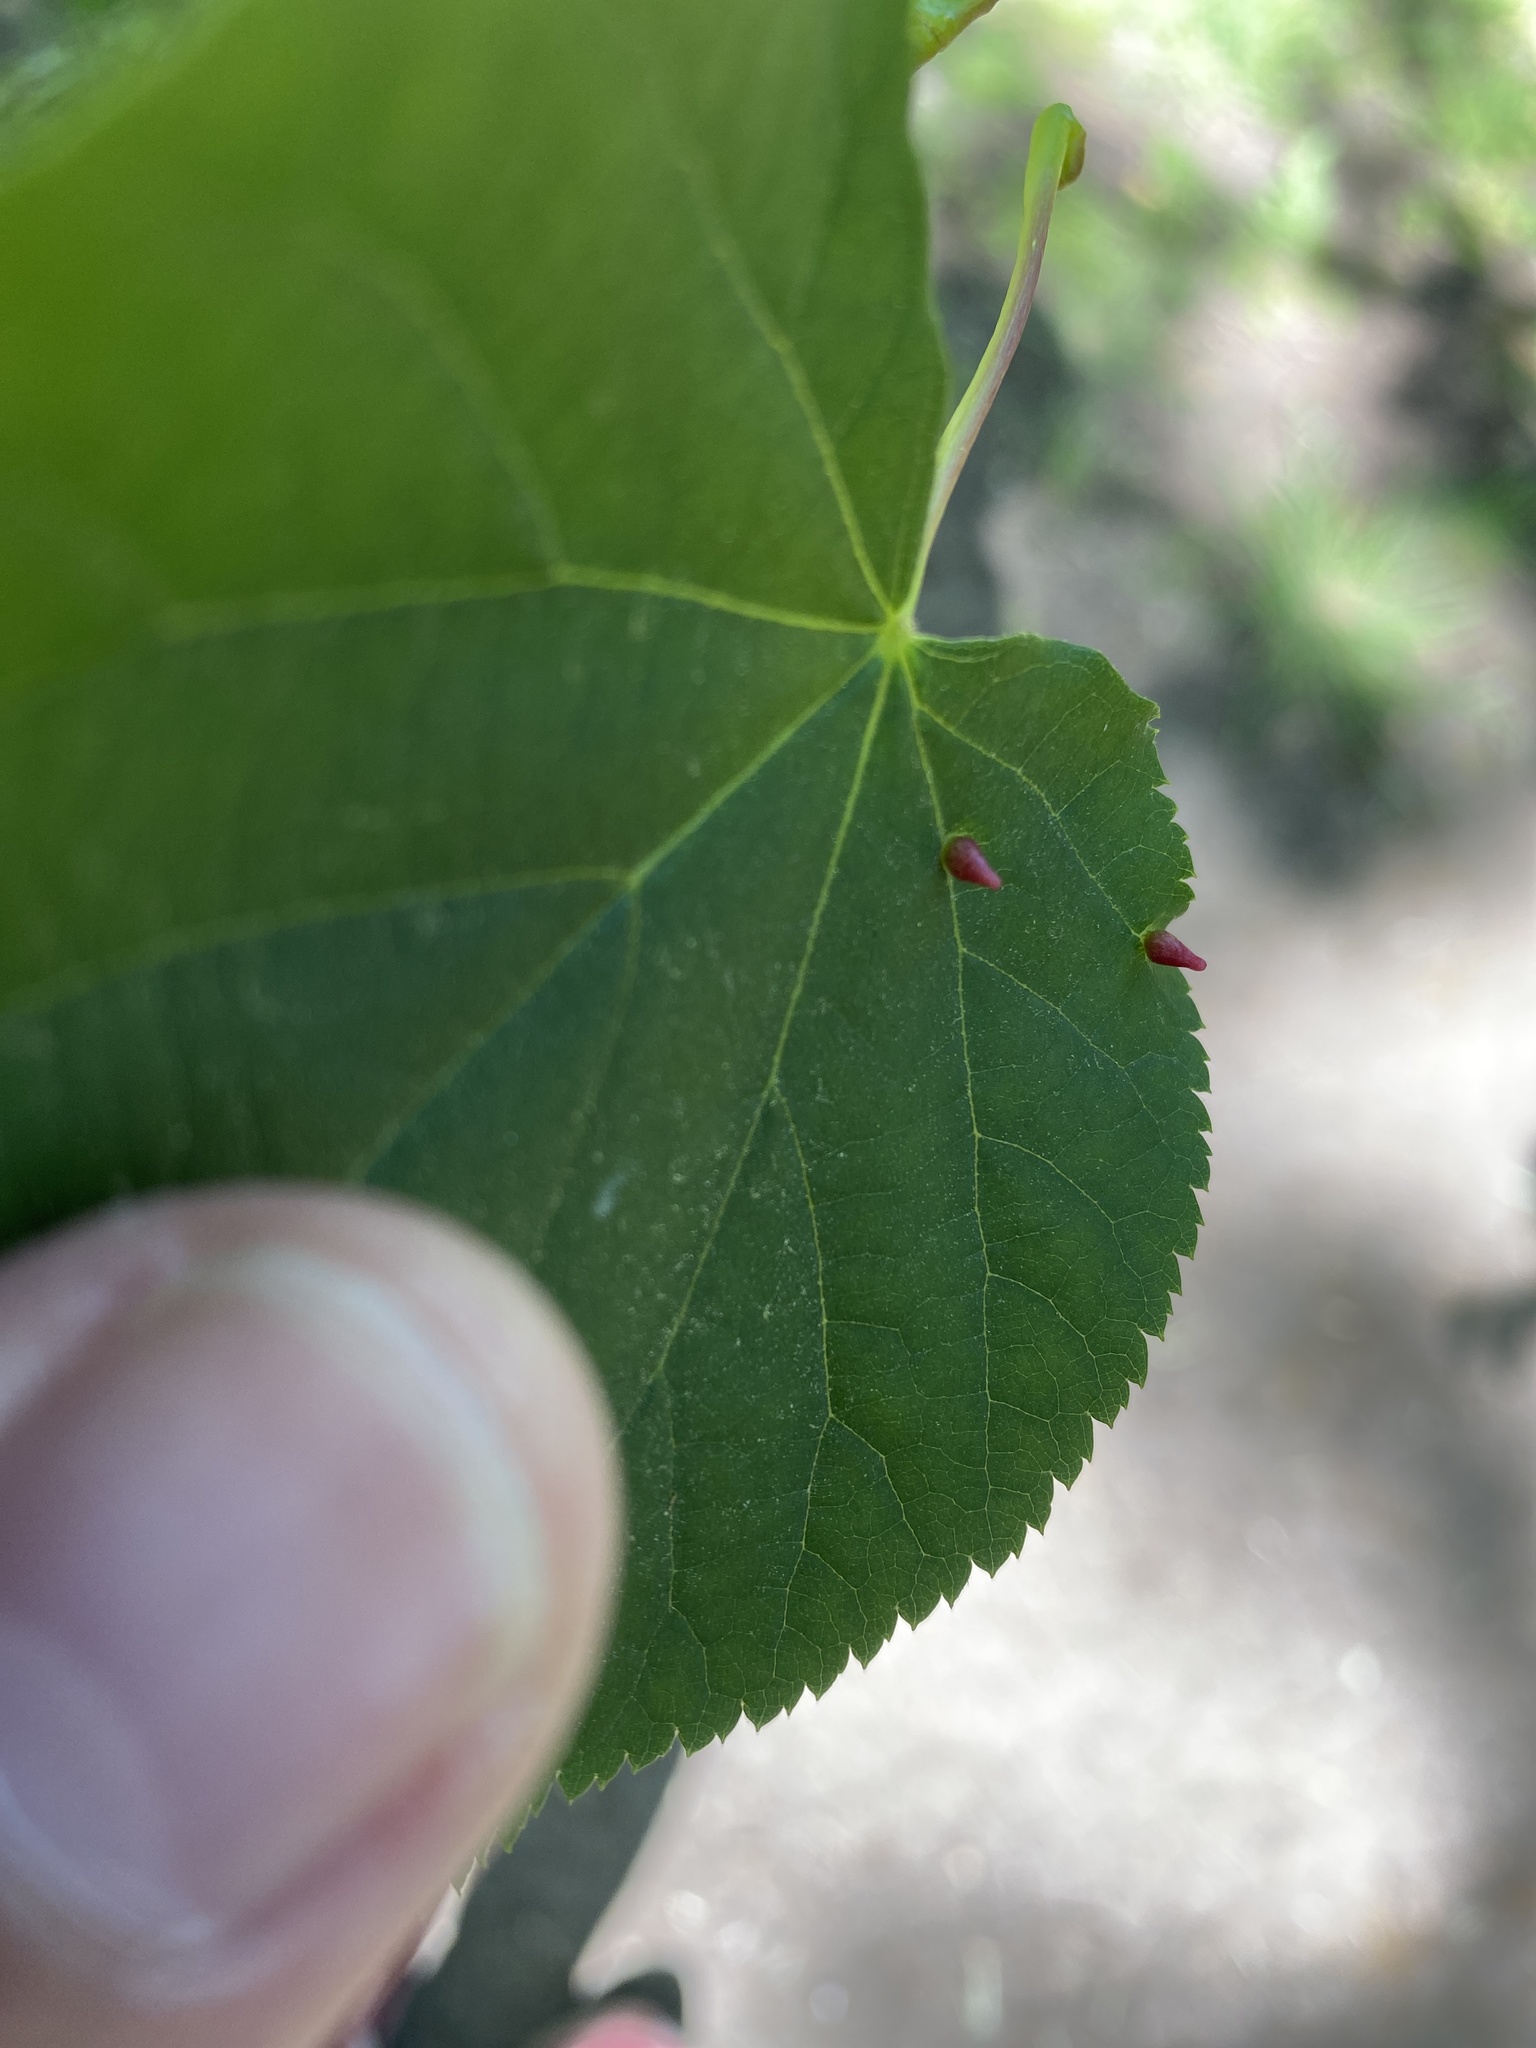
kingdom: Animalia
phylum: Arthropoda
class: Arachnida
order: Trombidiformes
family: Eriophyidae
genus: Eriophyes
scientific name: Eriophyes tiliae
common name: Red nail gall mite
